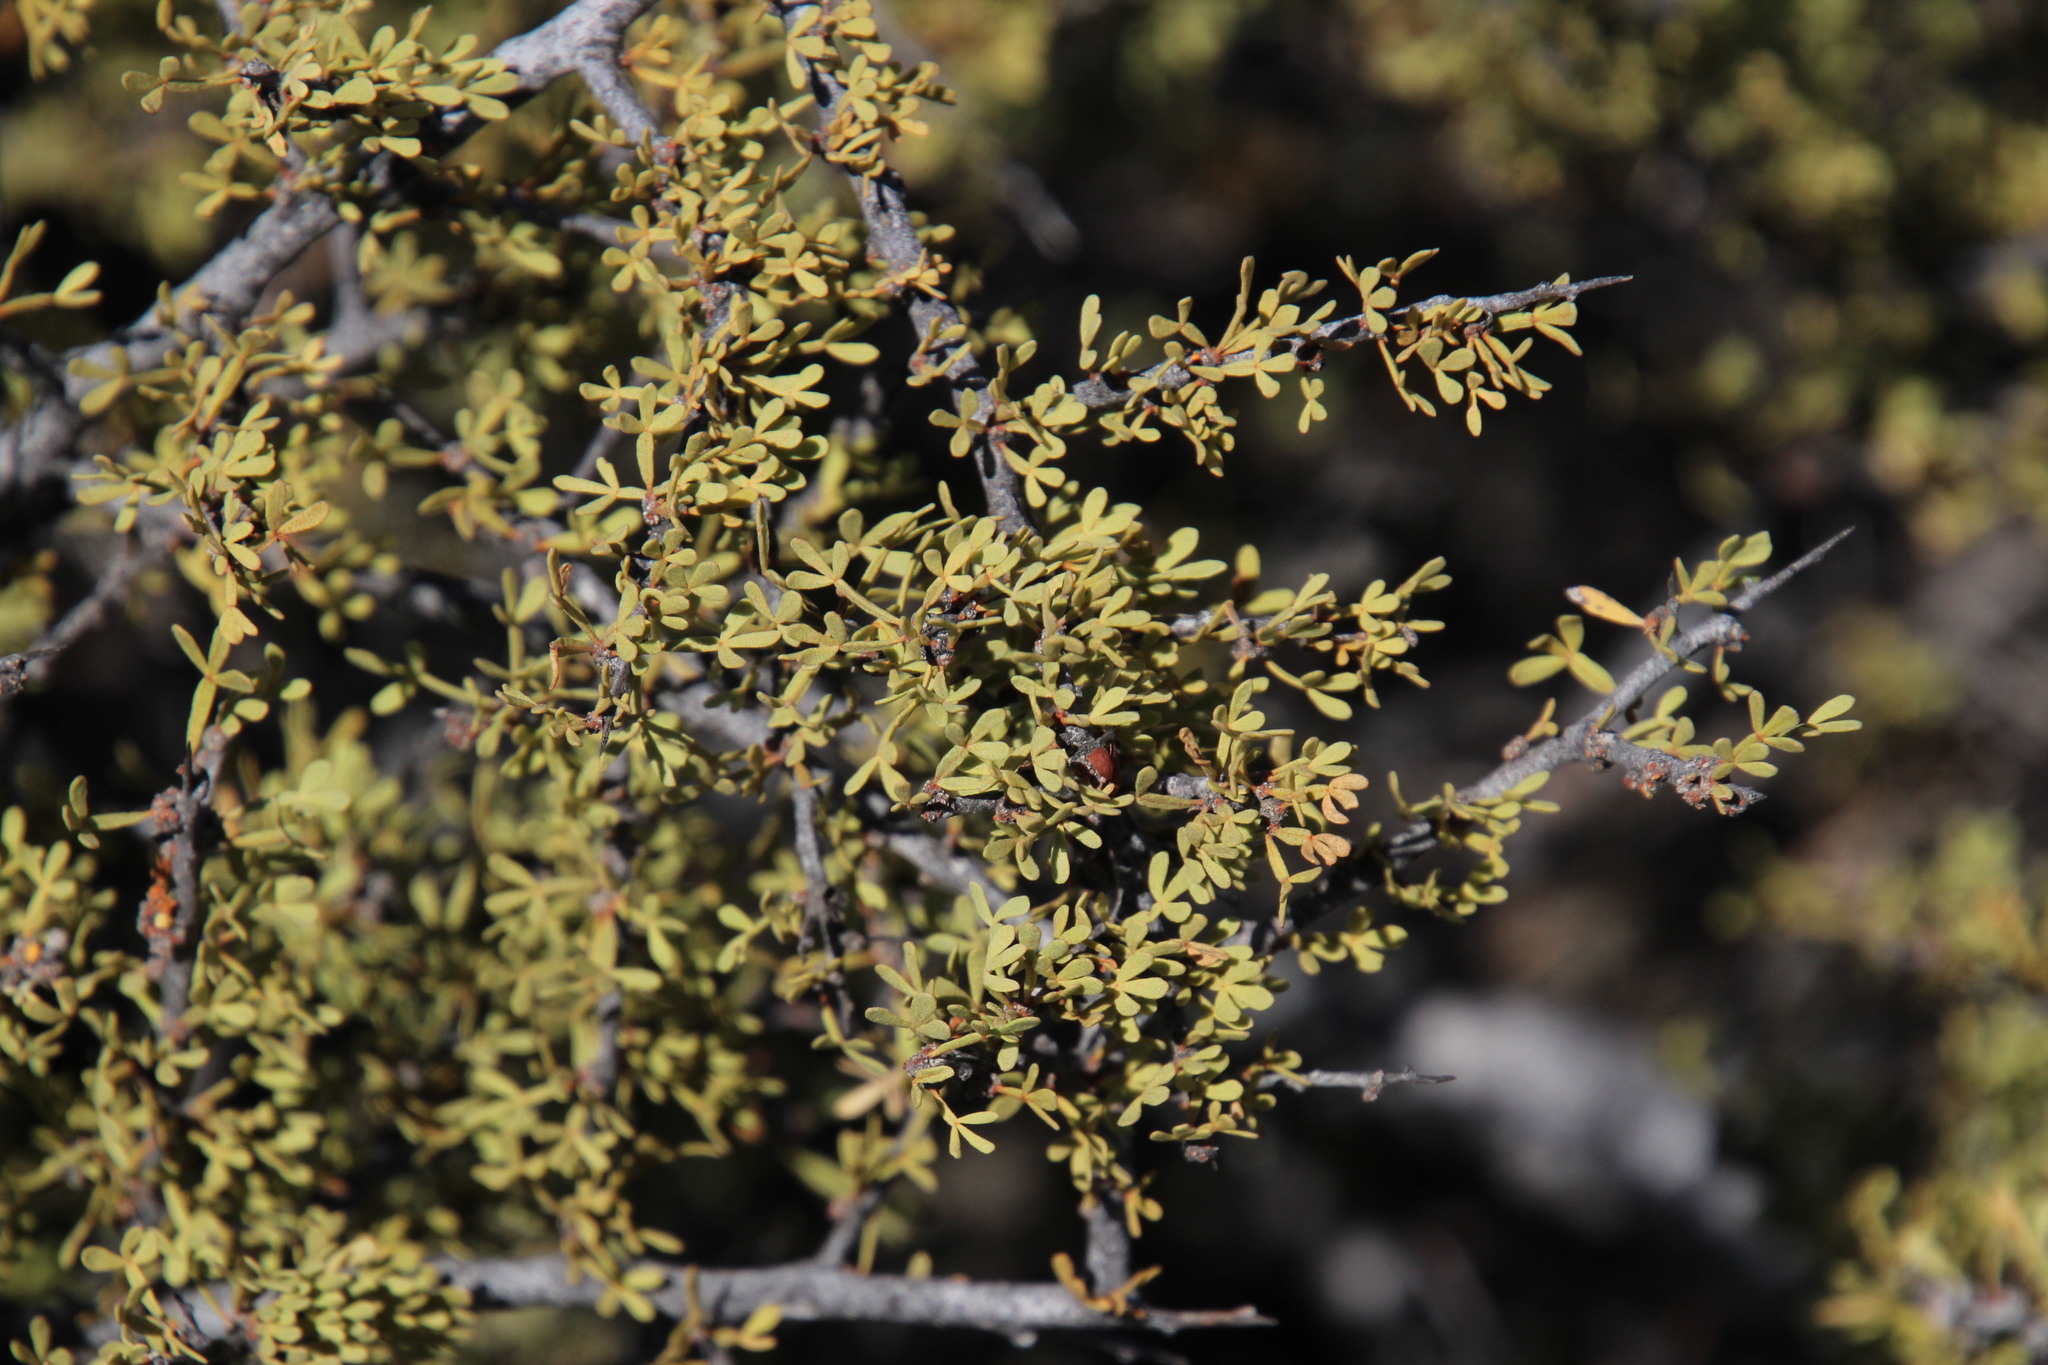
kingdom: Plantae
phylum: Tracheophyta
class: Magnoliopsida
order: Sapindales
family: Anacardiaceae
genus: Searsia
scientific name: Searsia horrida
